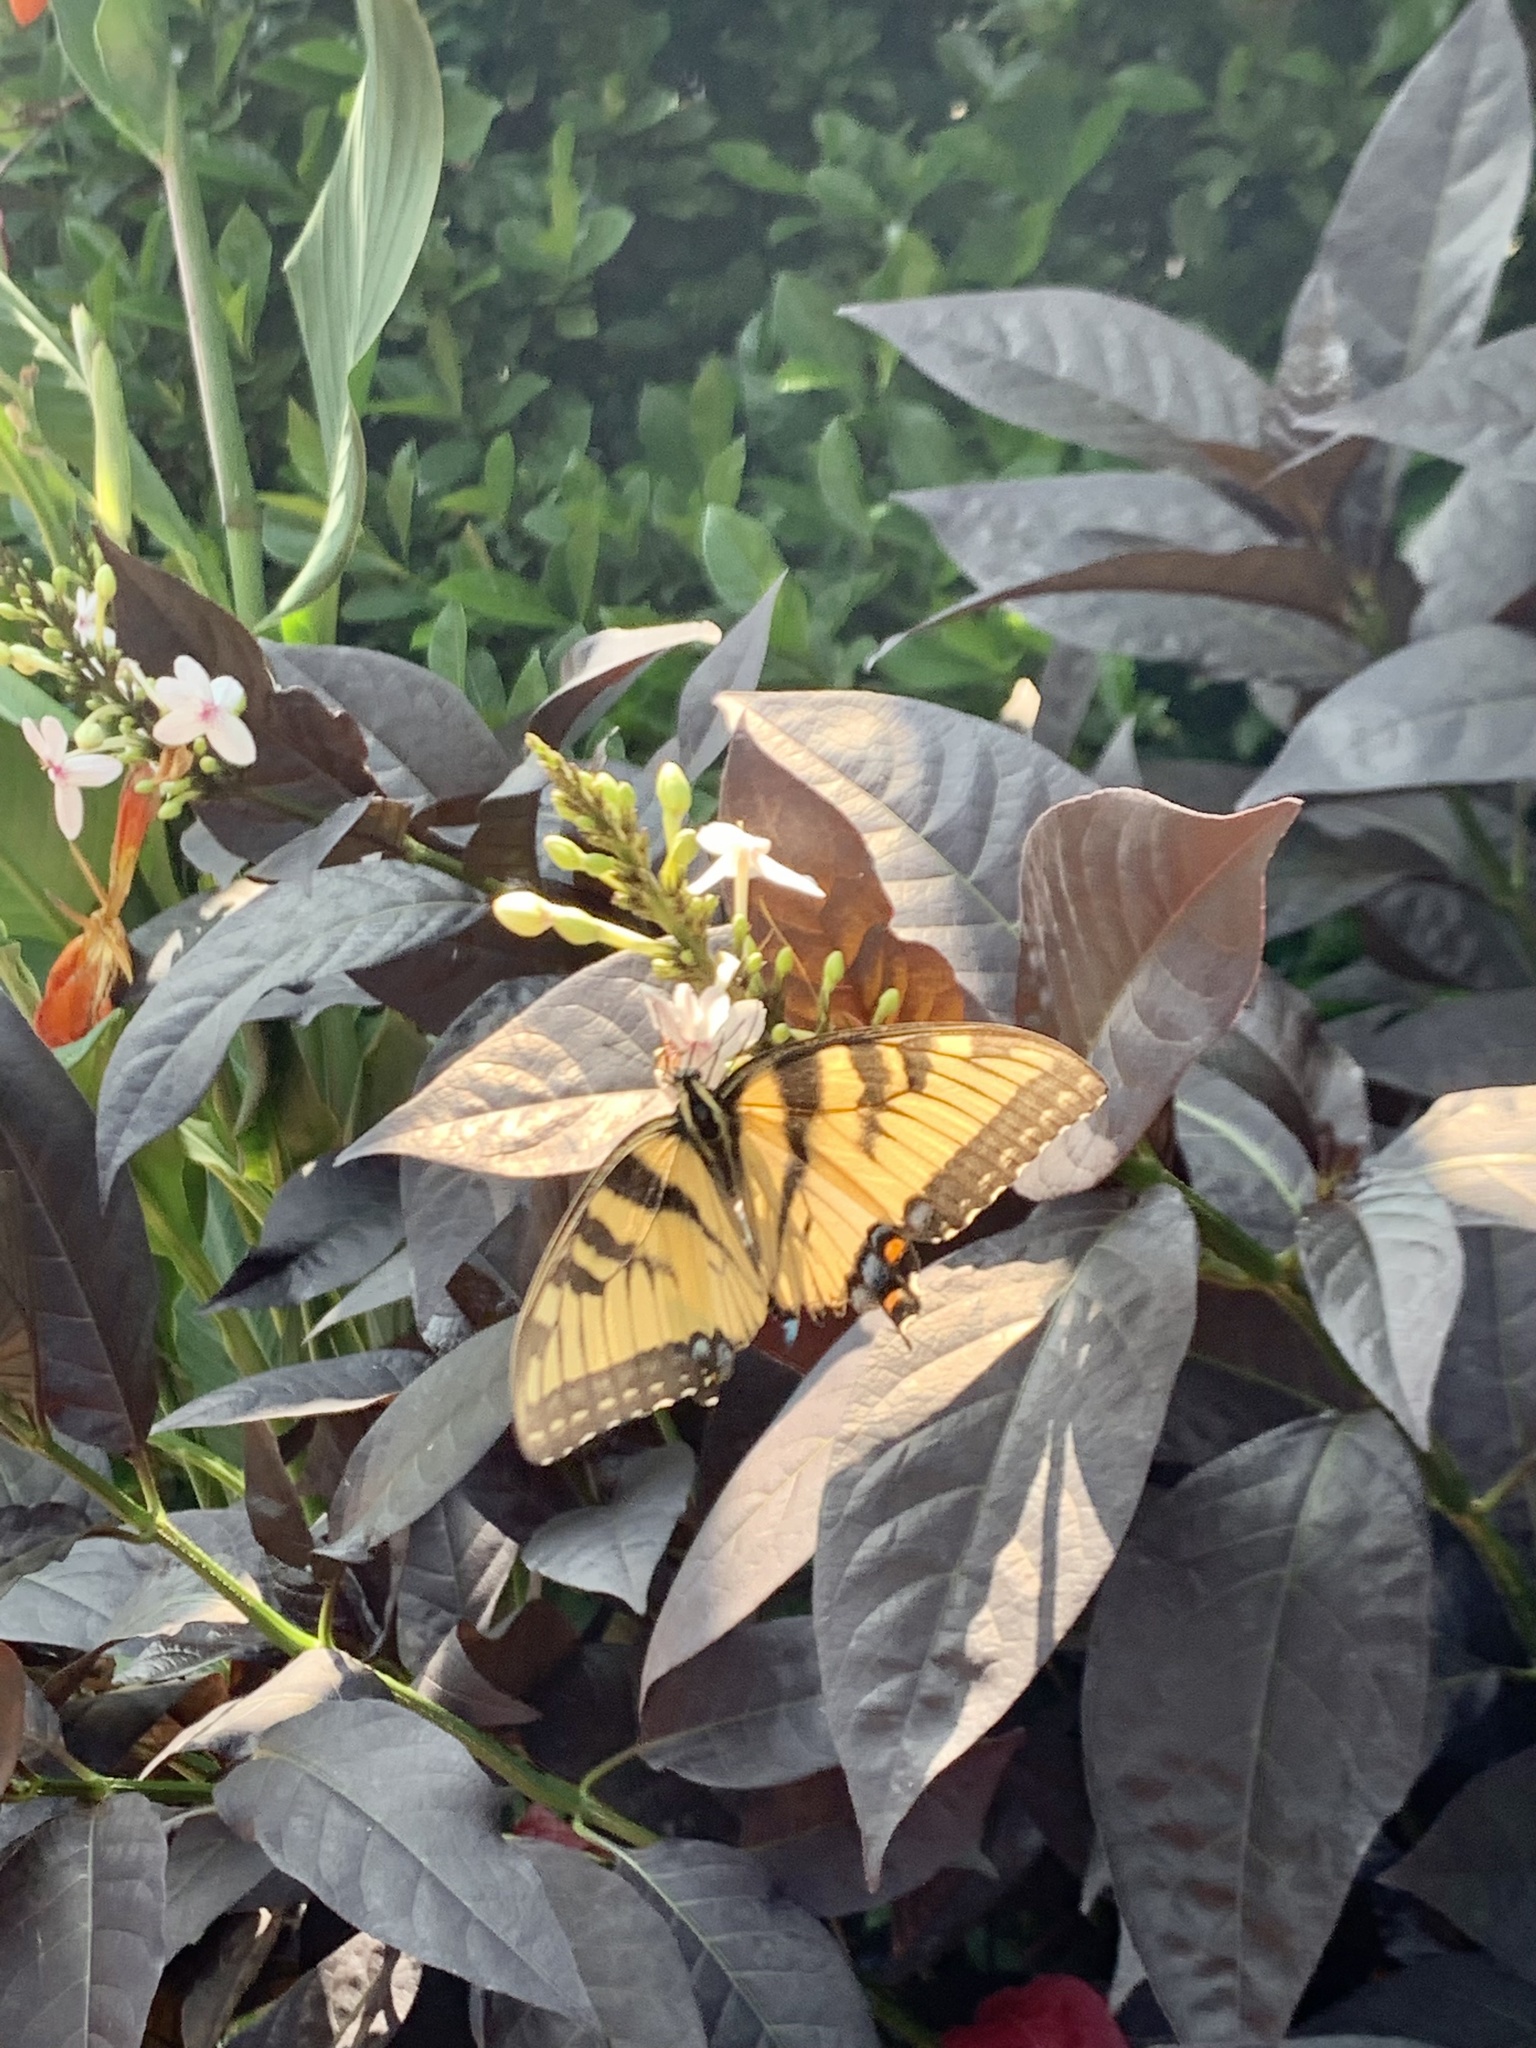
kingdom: Animalia
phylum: Arthropoda
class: Insecta
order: Lepidoptera
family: Papilionidae
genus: Papilio
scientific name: Papilio glaucus
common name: Tiger swallowtail
